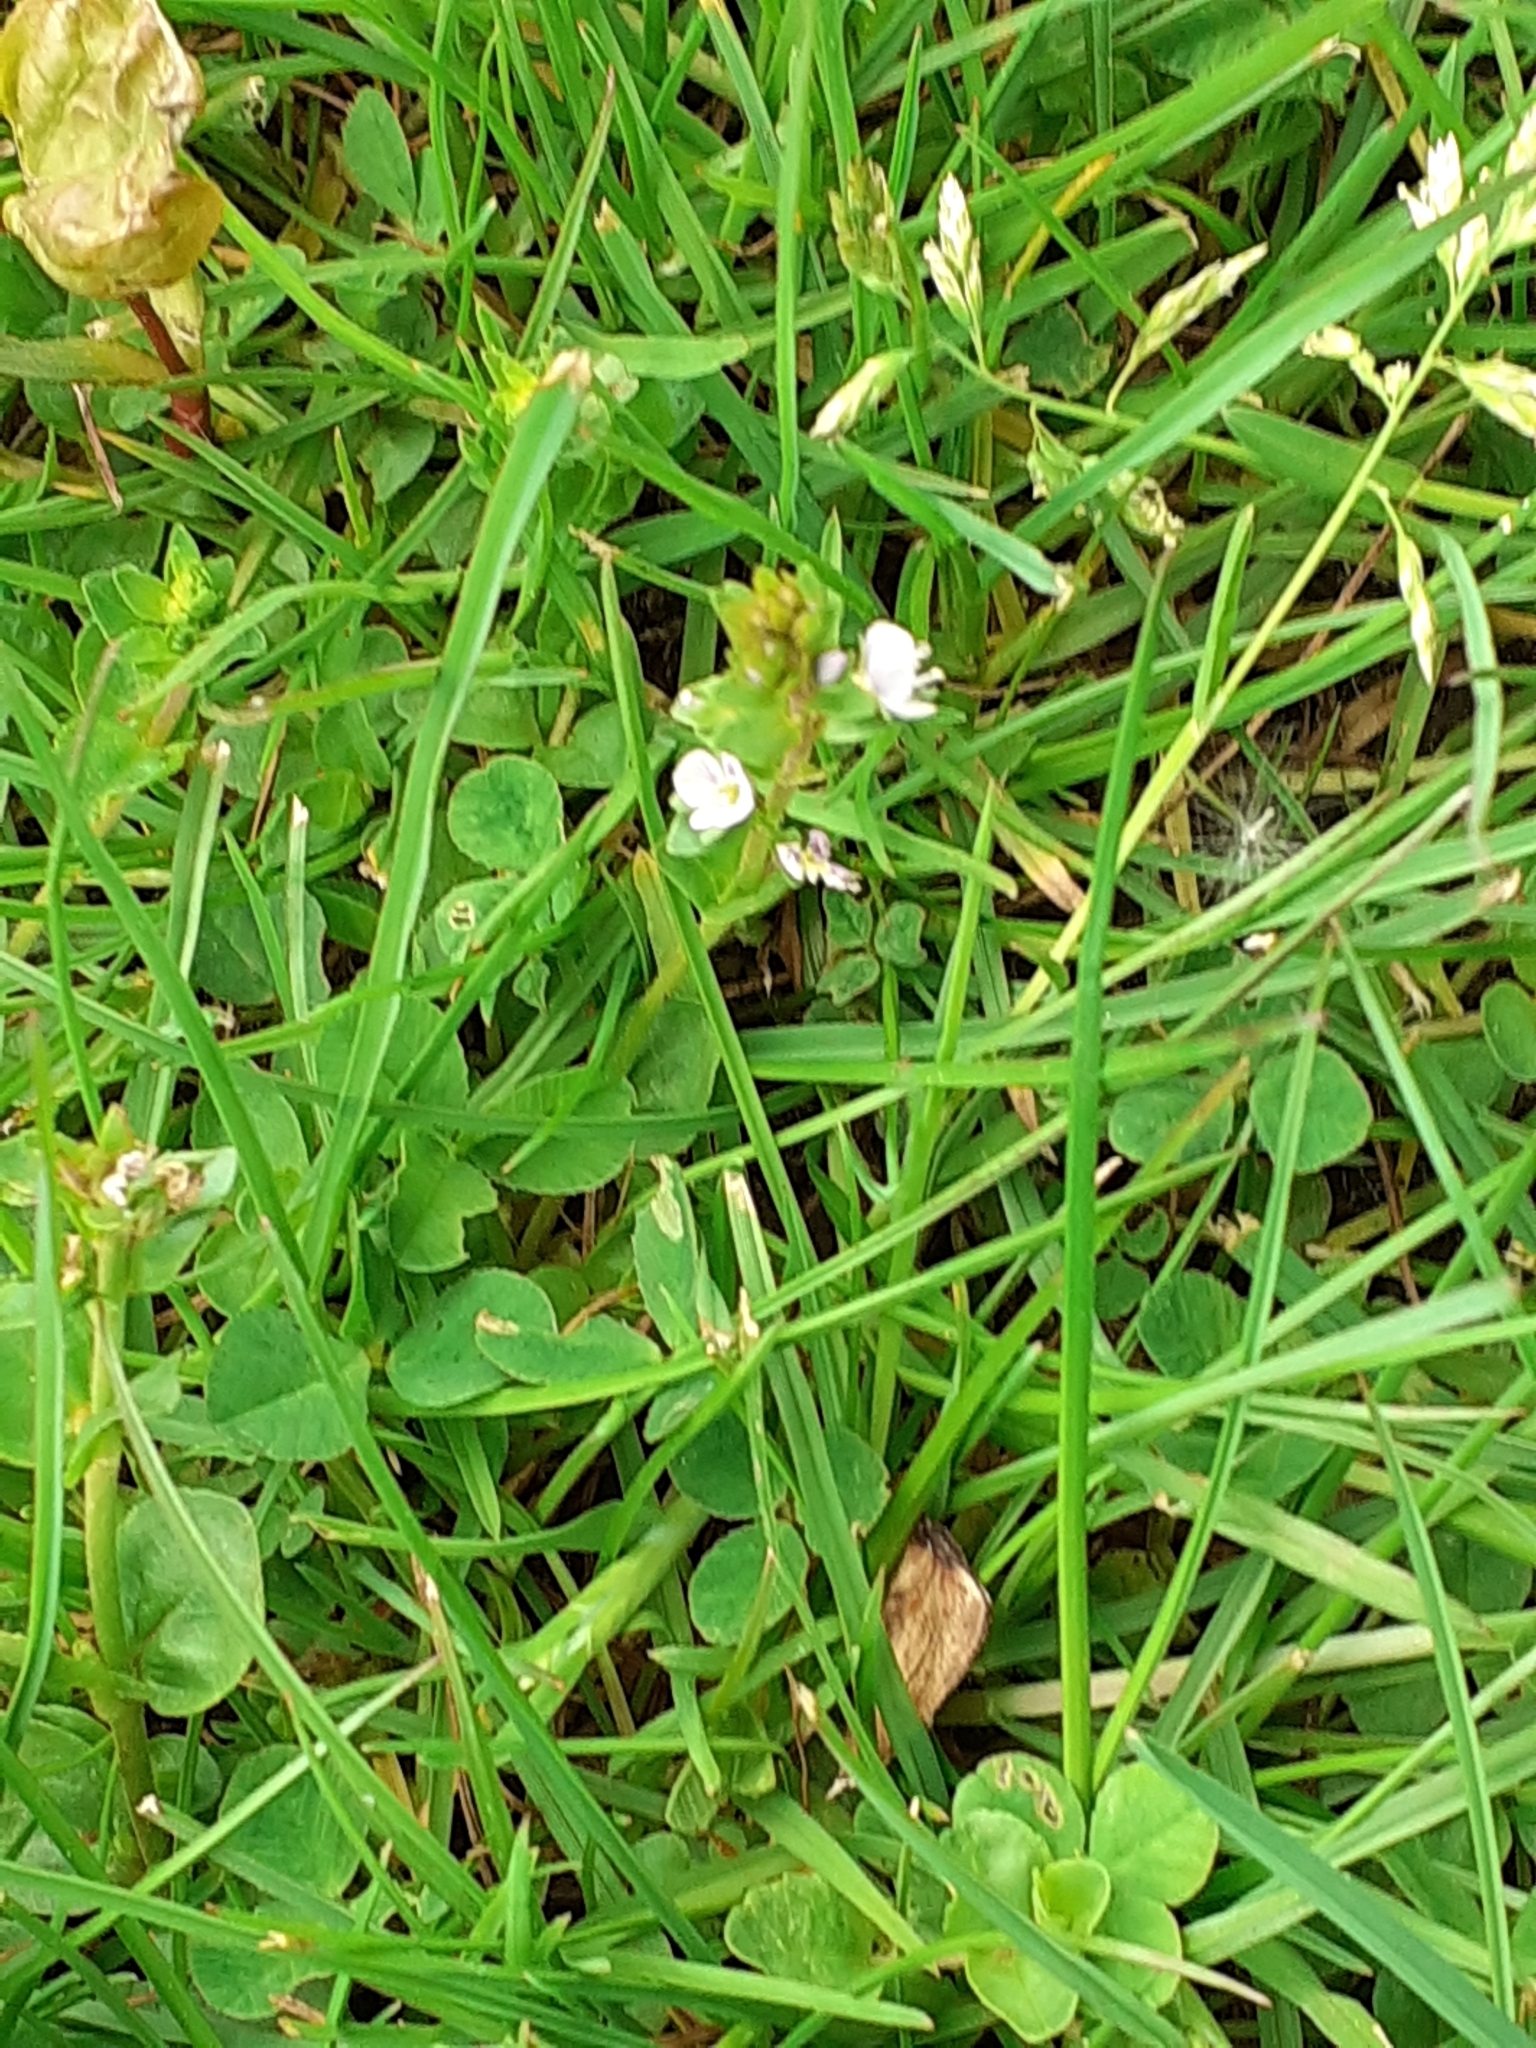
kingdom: Plantae
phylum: Tracheophyta
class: Magnoliopsida
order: Lamiales
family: Plantaginaceae
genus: Veronica
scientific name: Veronica serpyllifolia
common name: Thyme-leaved speedwell
